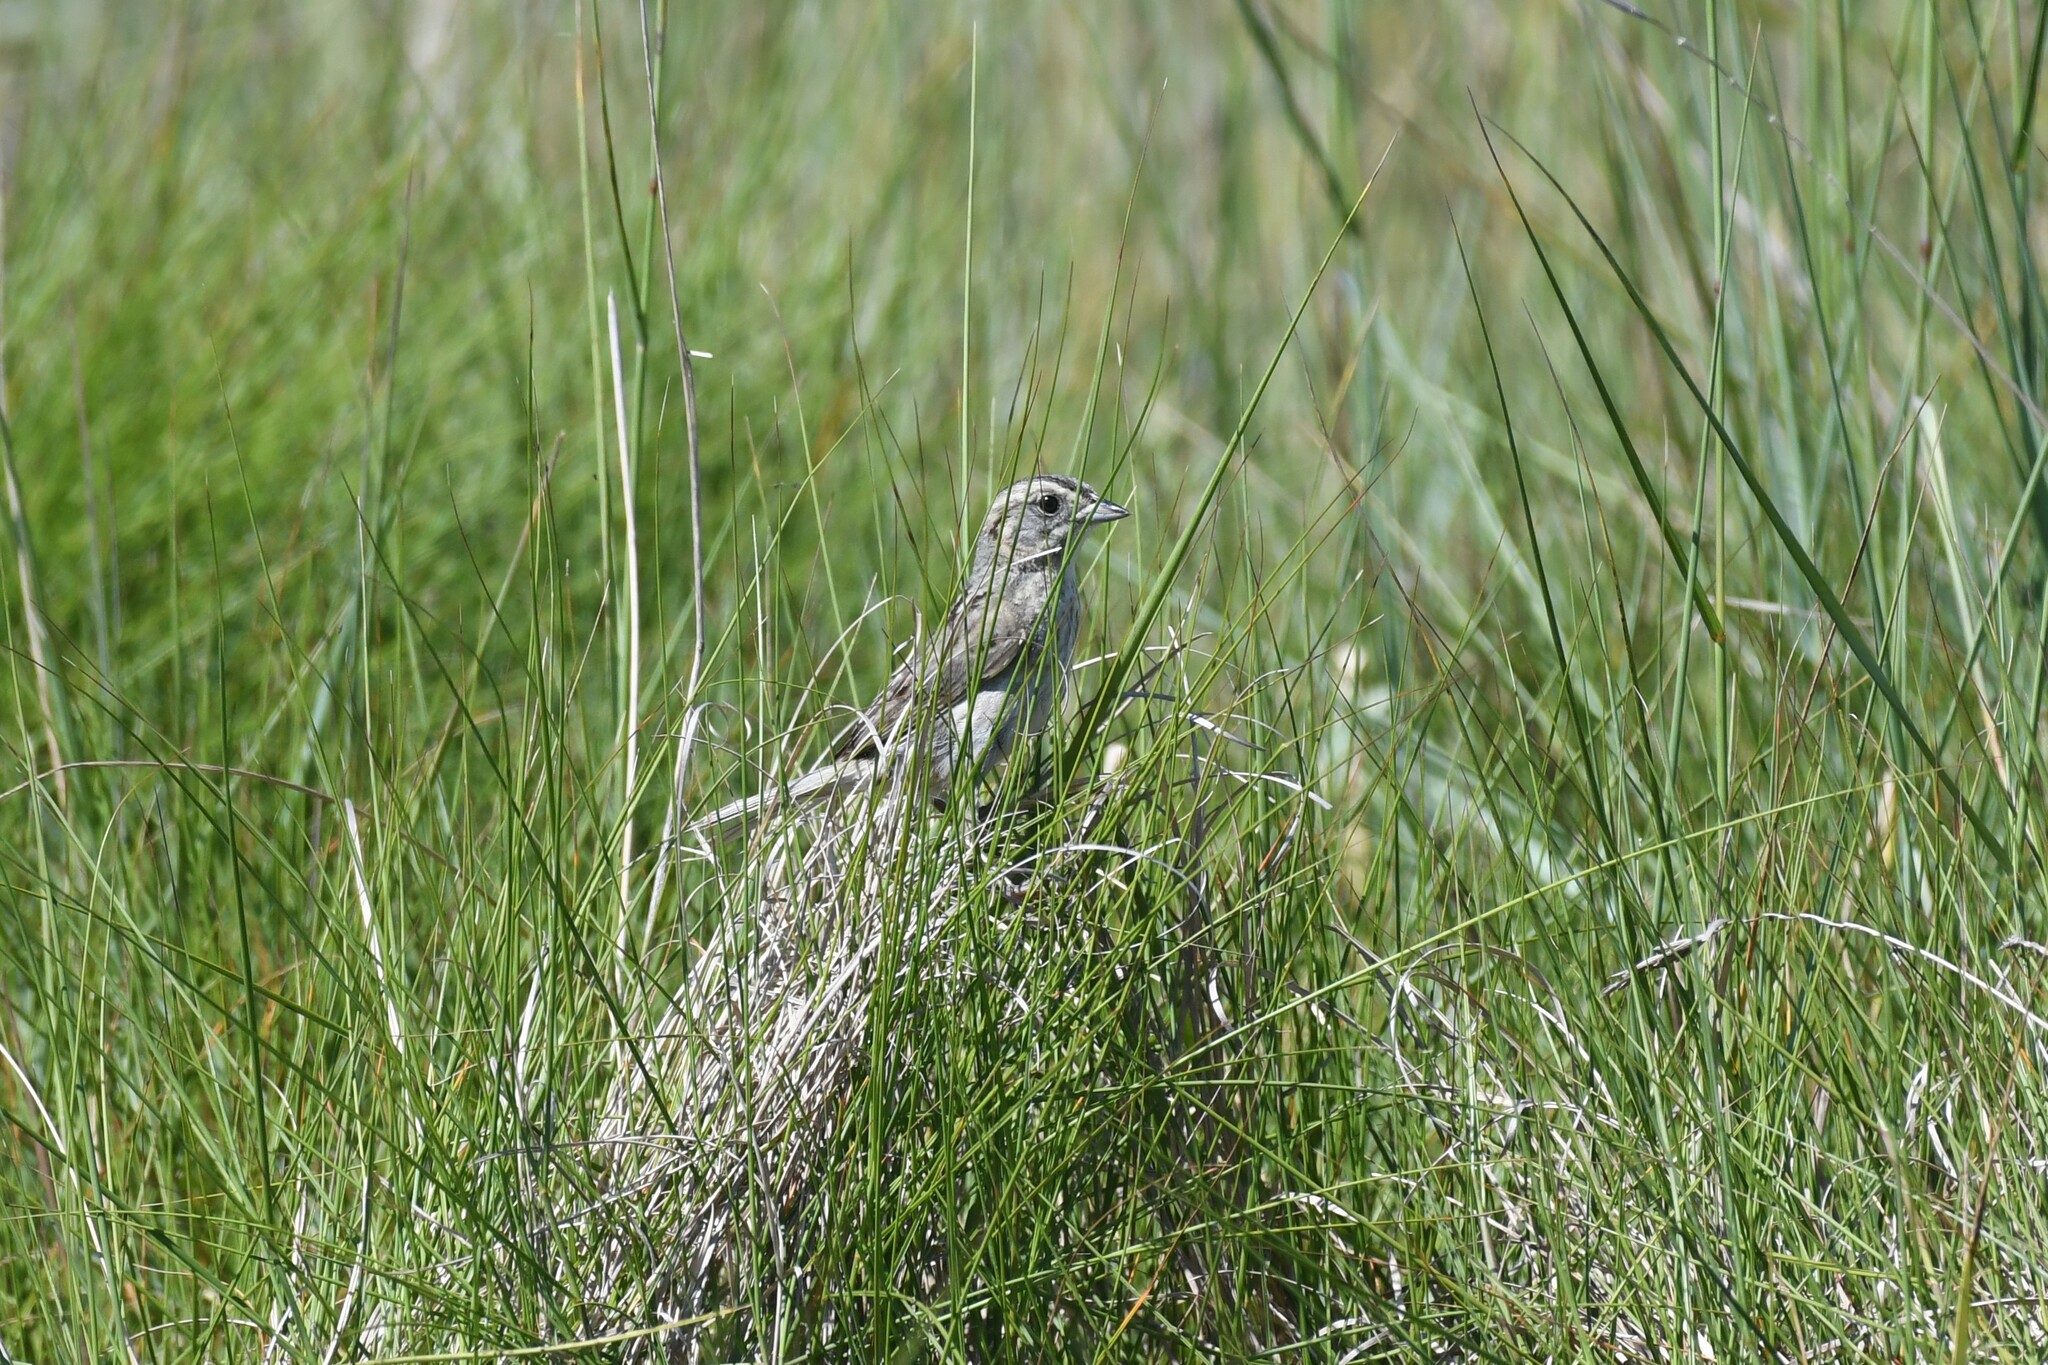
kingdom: Animalia
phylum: Chordata
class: Aves
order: Passeriformes
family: Passerellidae
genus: Ammospiza
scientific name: Ammospiza nelsoni
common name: Nelson's sparrow
